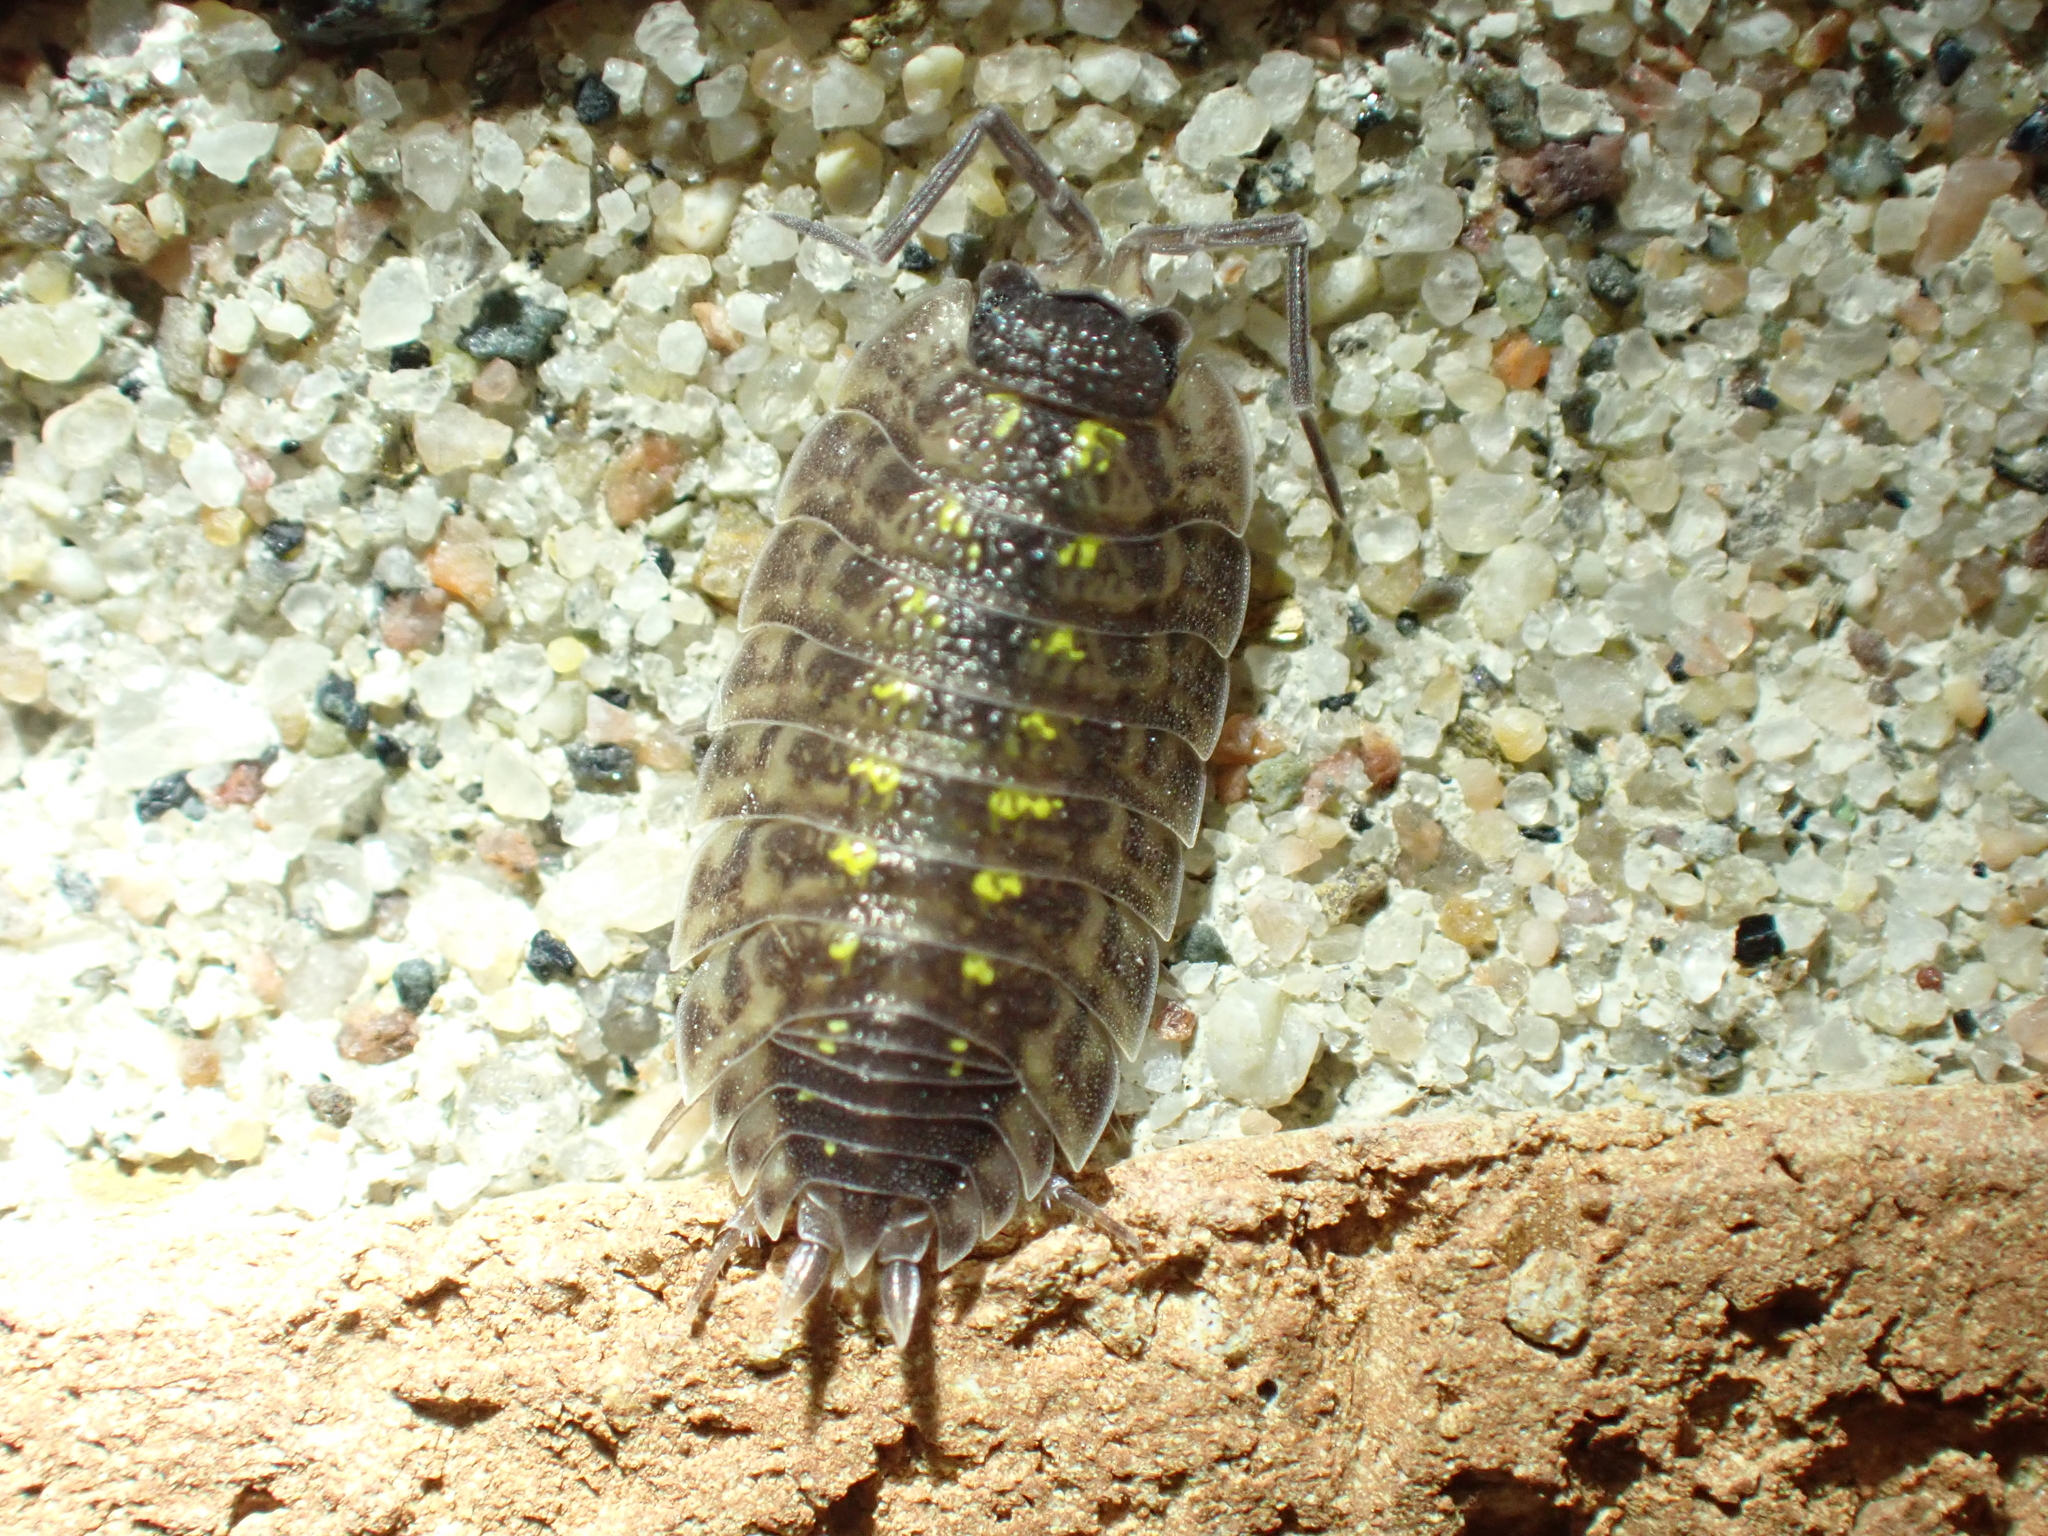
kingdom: Animalia
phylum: Arthropoda
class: Malacostraca
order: Isopoda
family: Porcellionidae
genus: Porcellio
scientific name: Porcellio spinicornis
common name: Painted woodlouse
